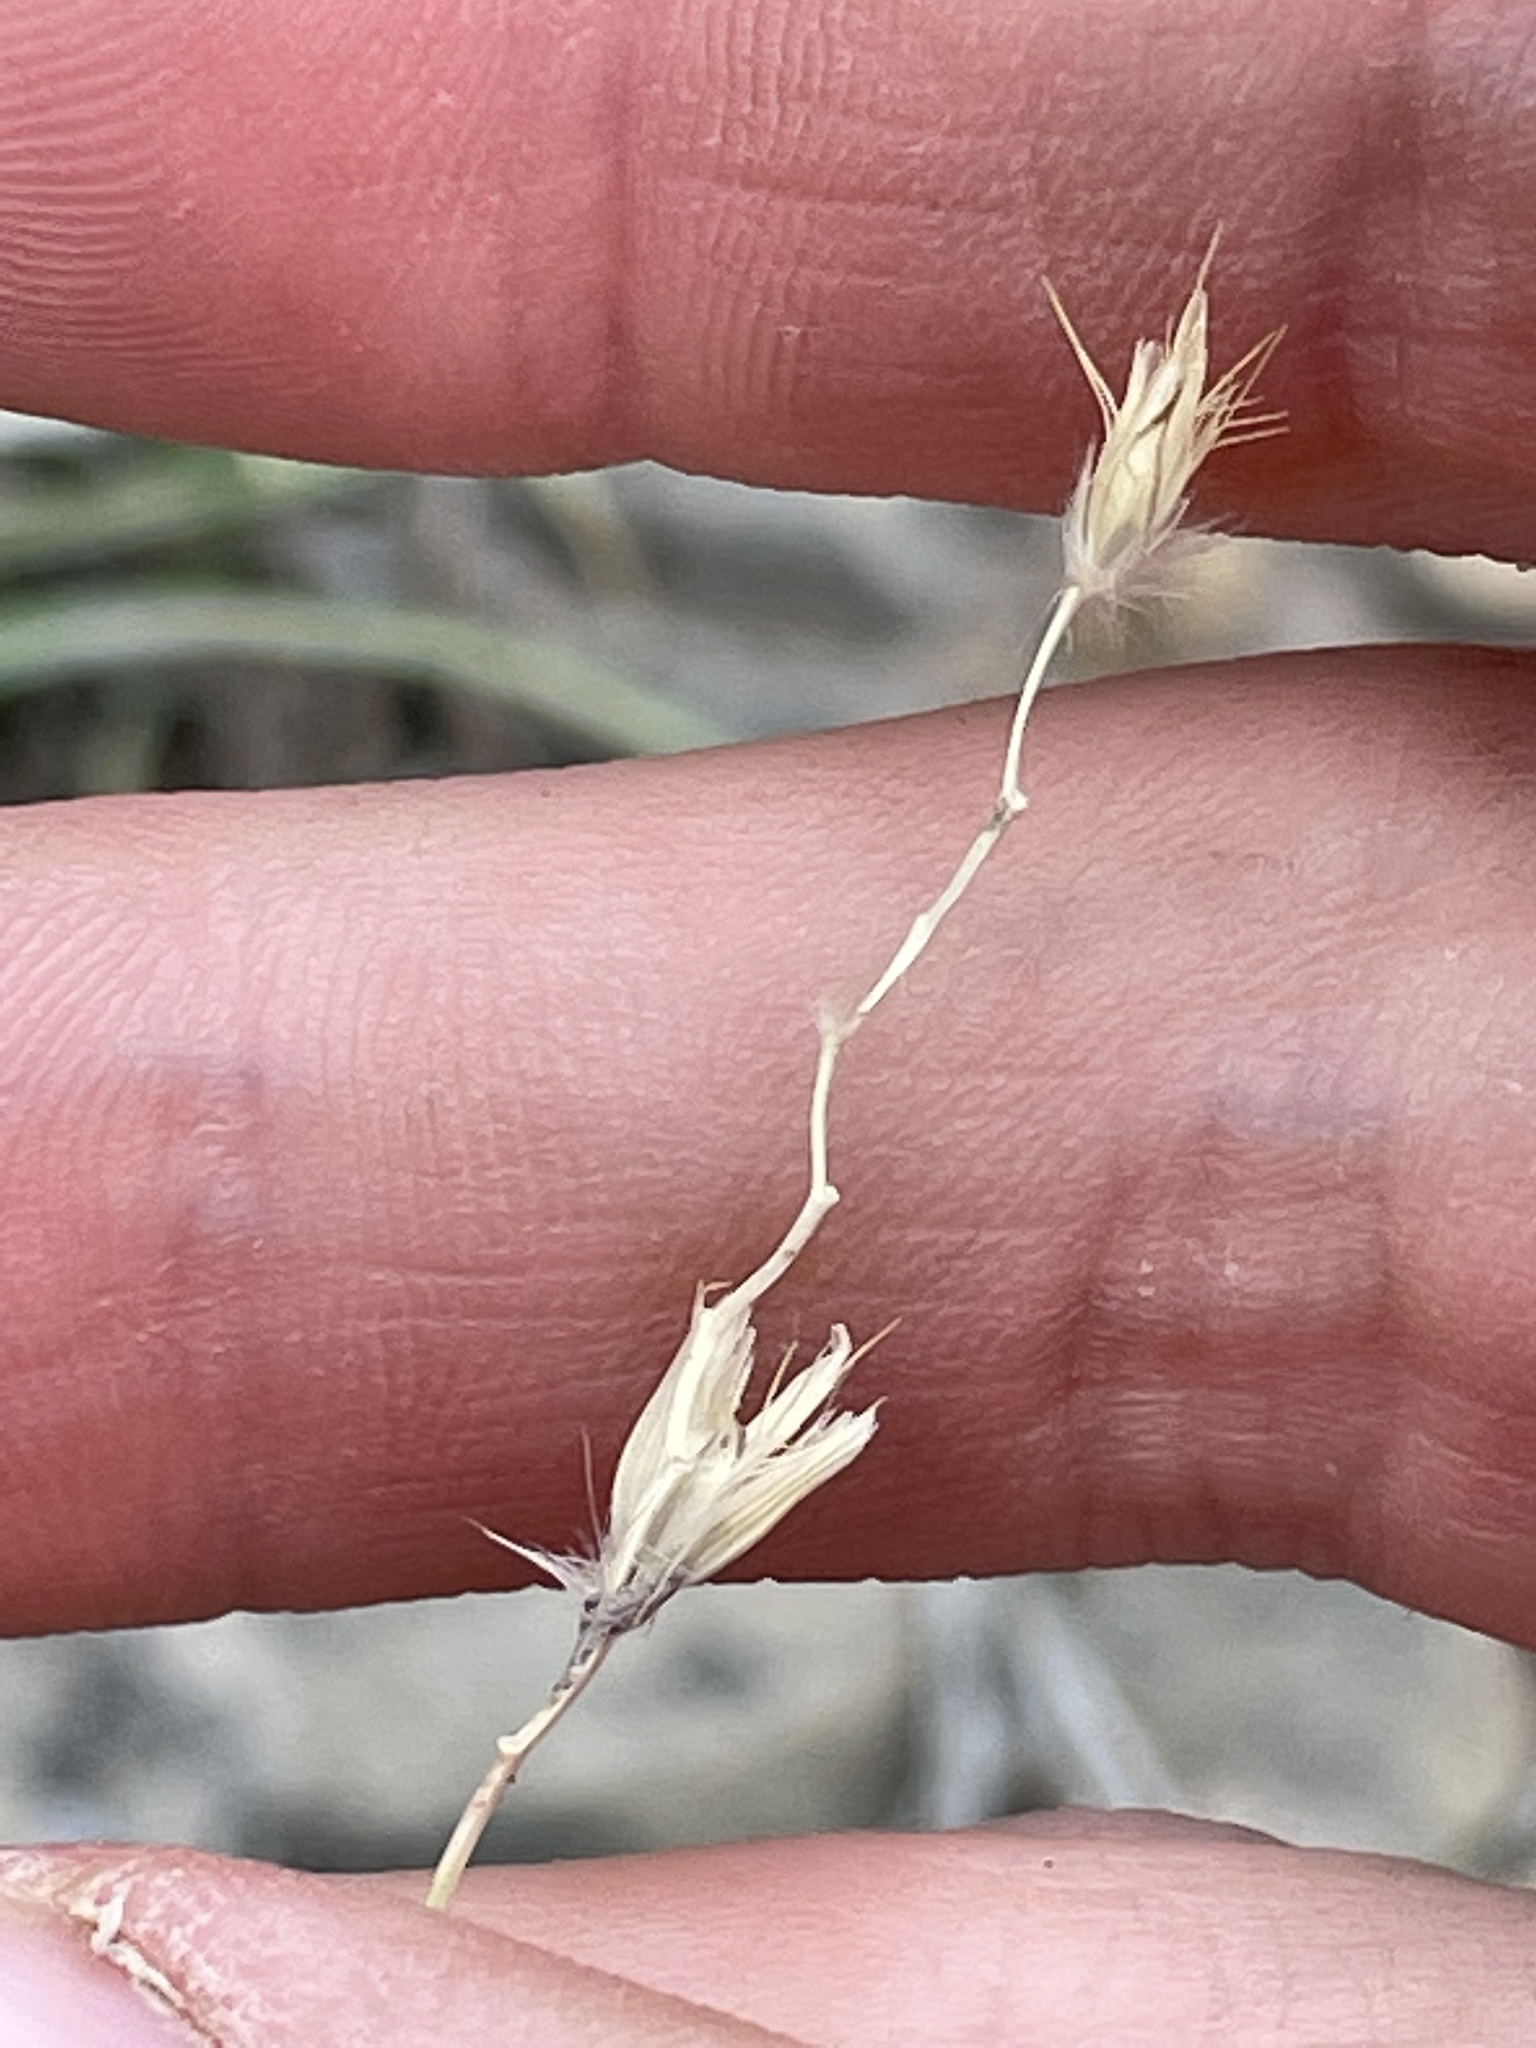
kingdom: Plantae
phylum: Tracheophyta
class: Liliopsida
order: Poales
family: Poaceae
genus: Hilaria
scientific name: Hilaria jamesii
